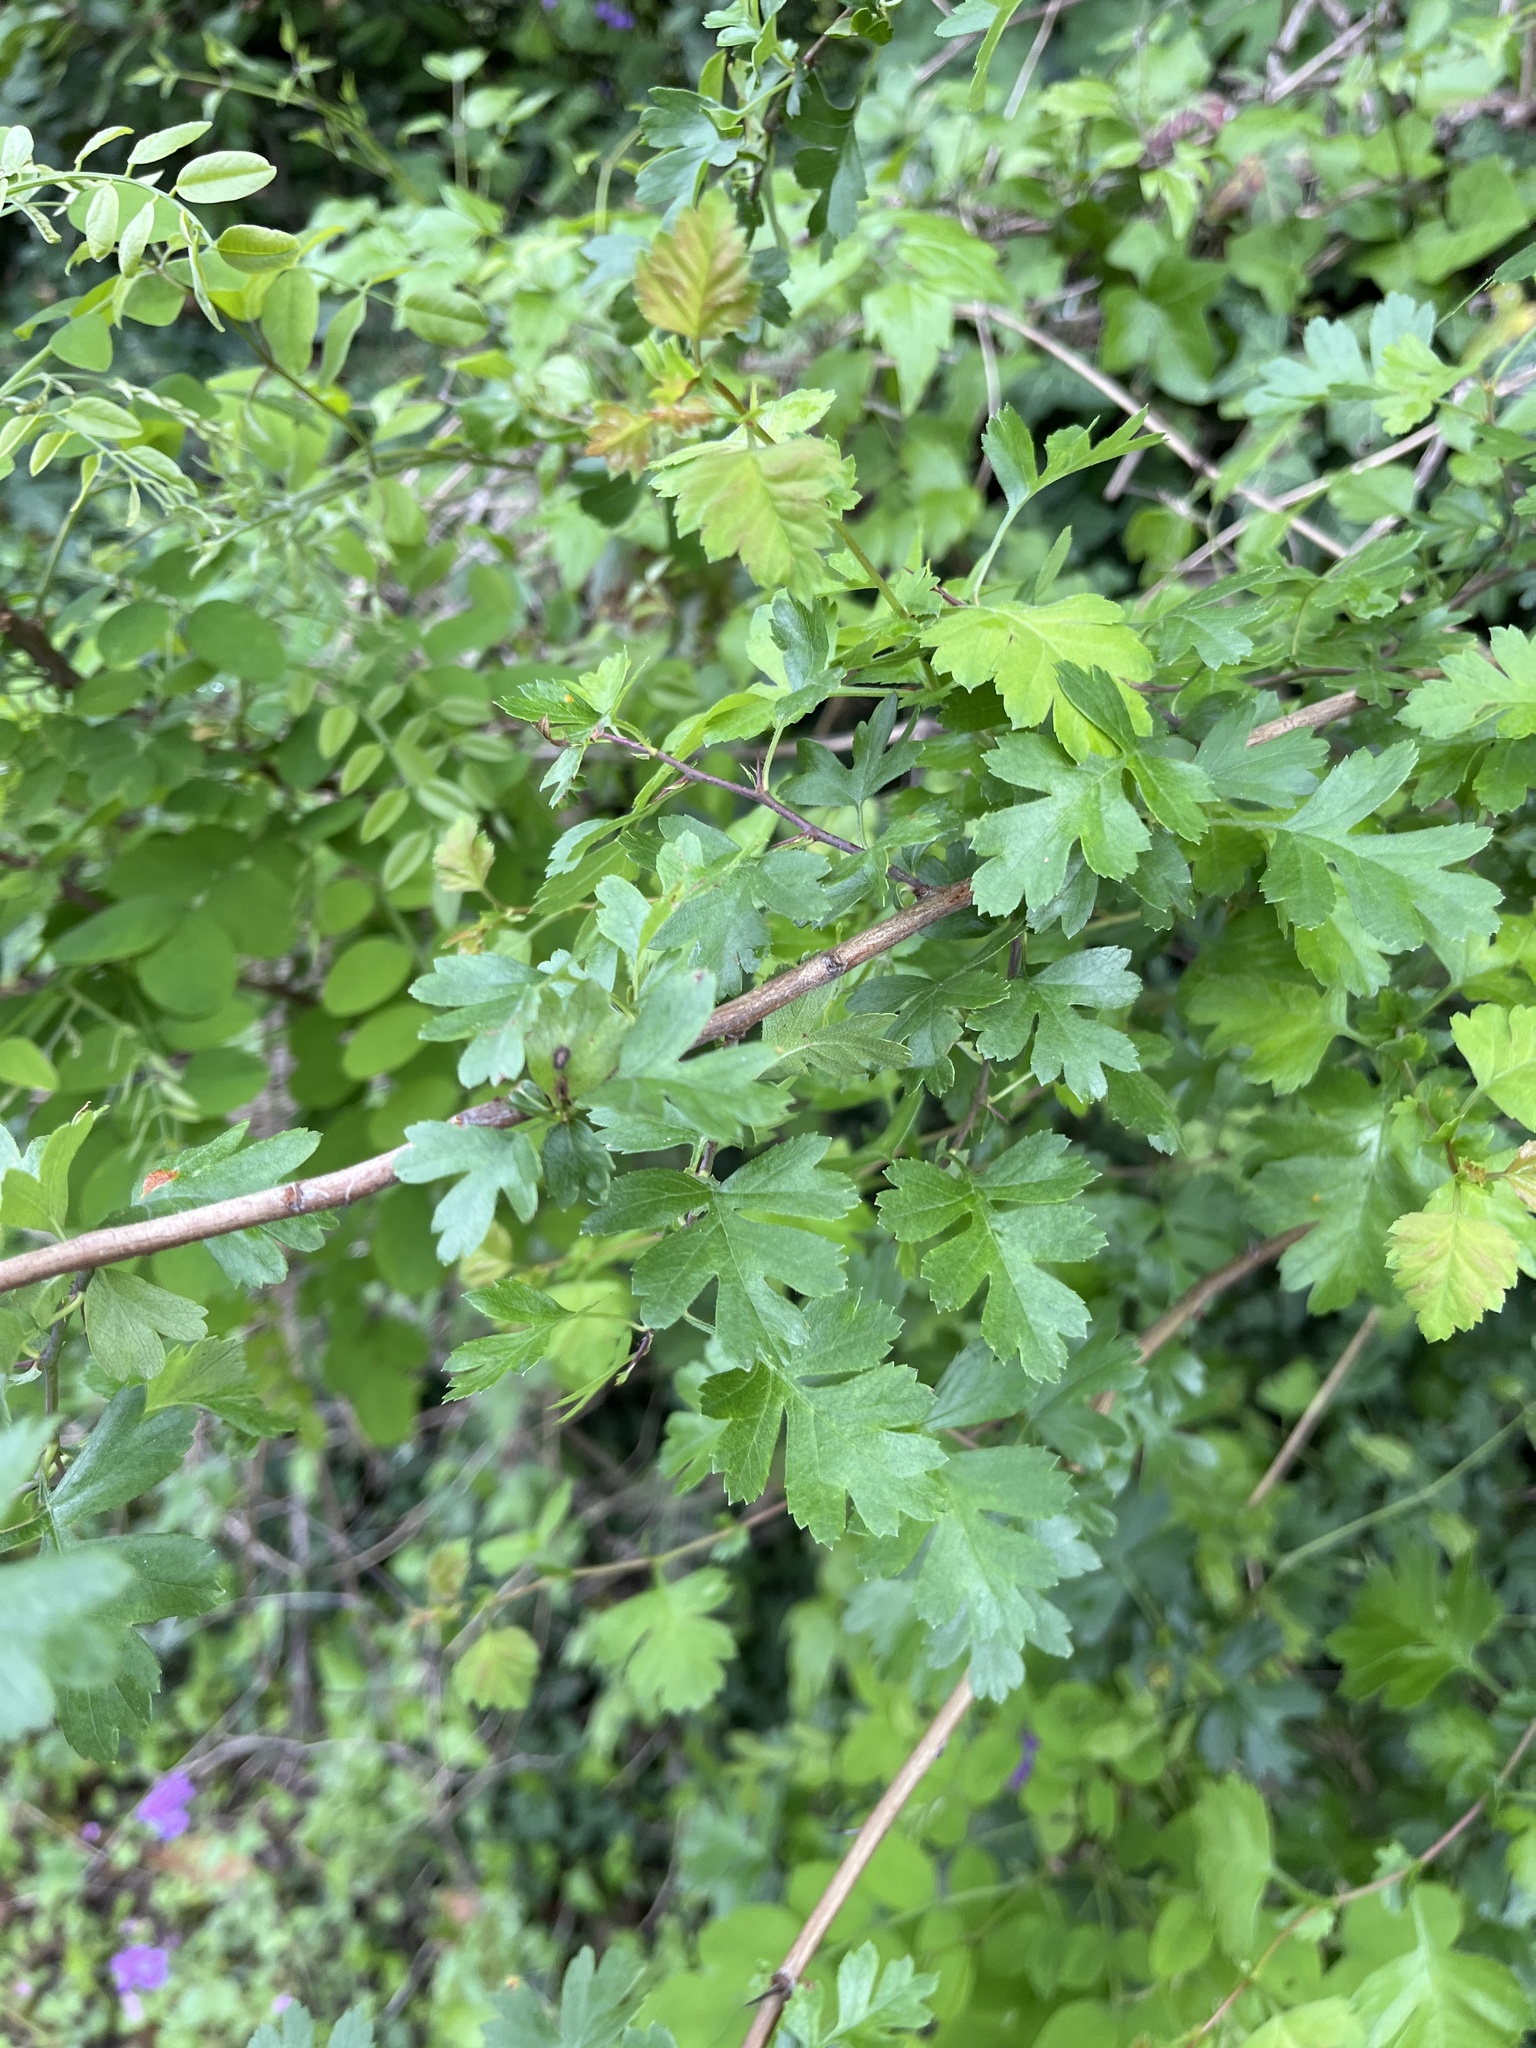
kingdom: Plantae
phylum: Tracheophyta
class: Magnoliopsida
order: Rosales
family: Rosaceae
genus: Crataegus
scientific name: Crataegus monogyna
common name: Hawthorn
